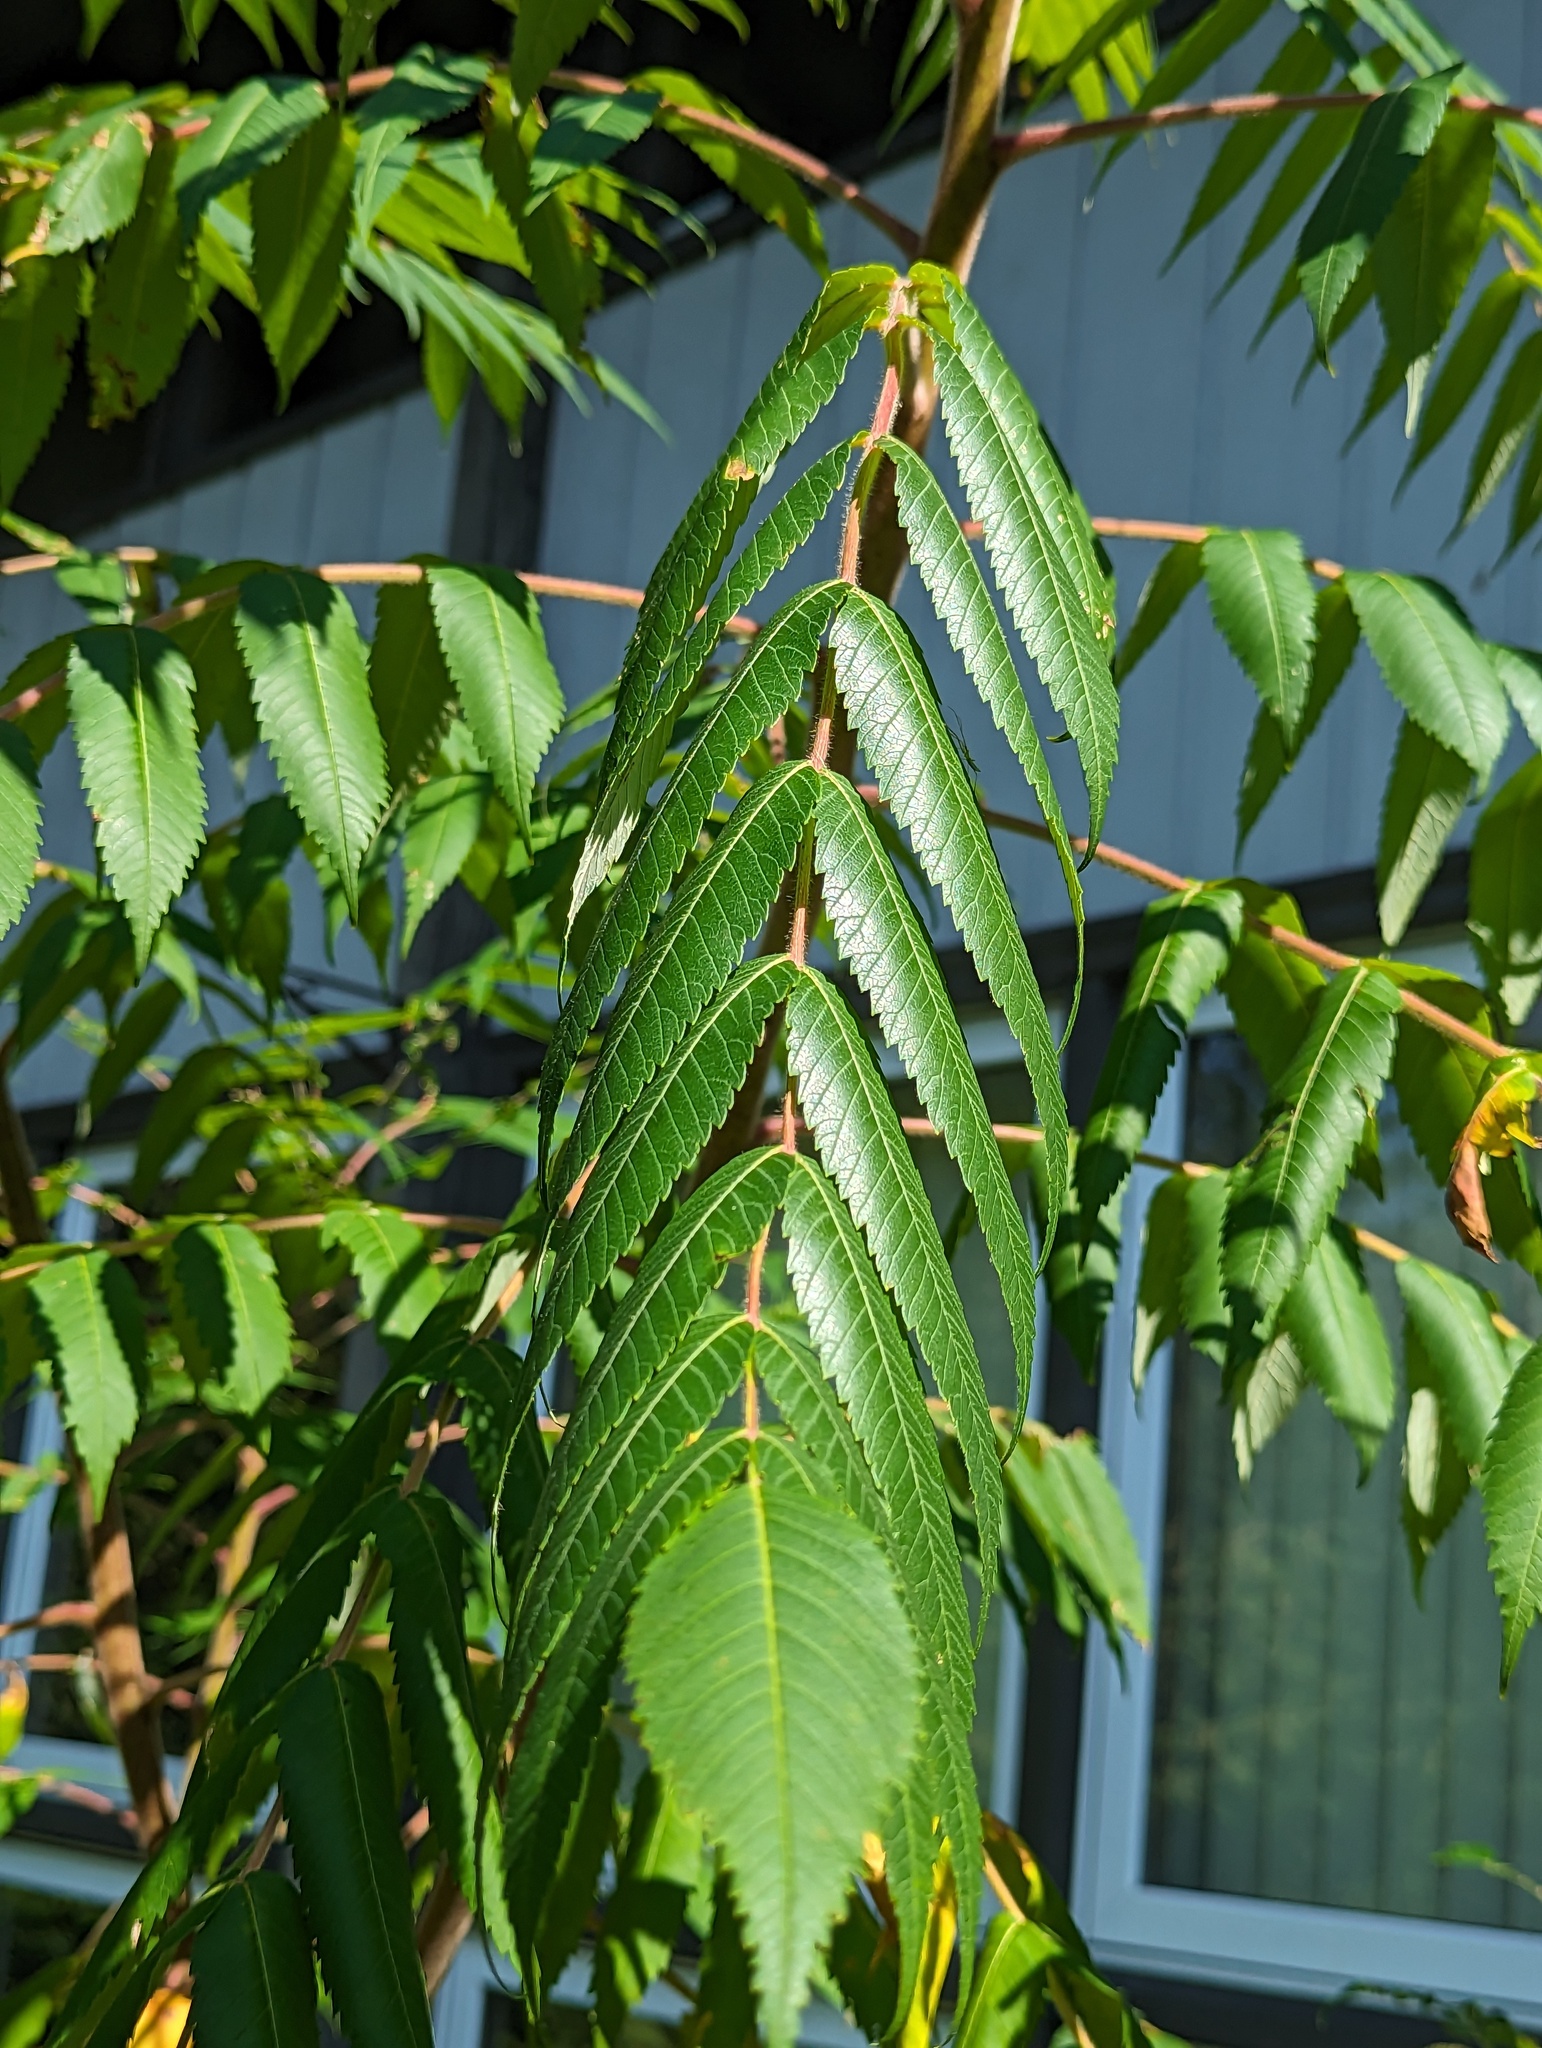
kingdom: Plantae
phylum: Tracheophyta
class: Magnoliopsida
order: Sapindales
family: Anacardiaceae
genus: Rhus
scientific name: Rhus typhina
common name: Staghorn sumac
